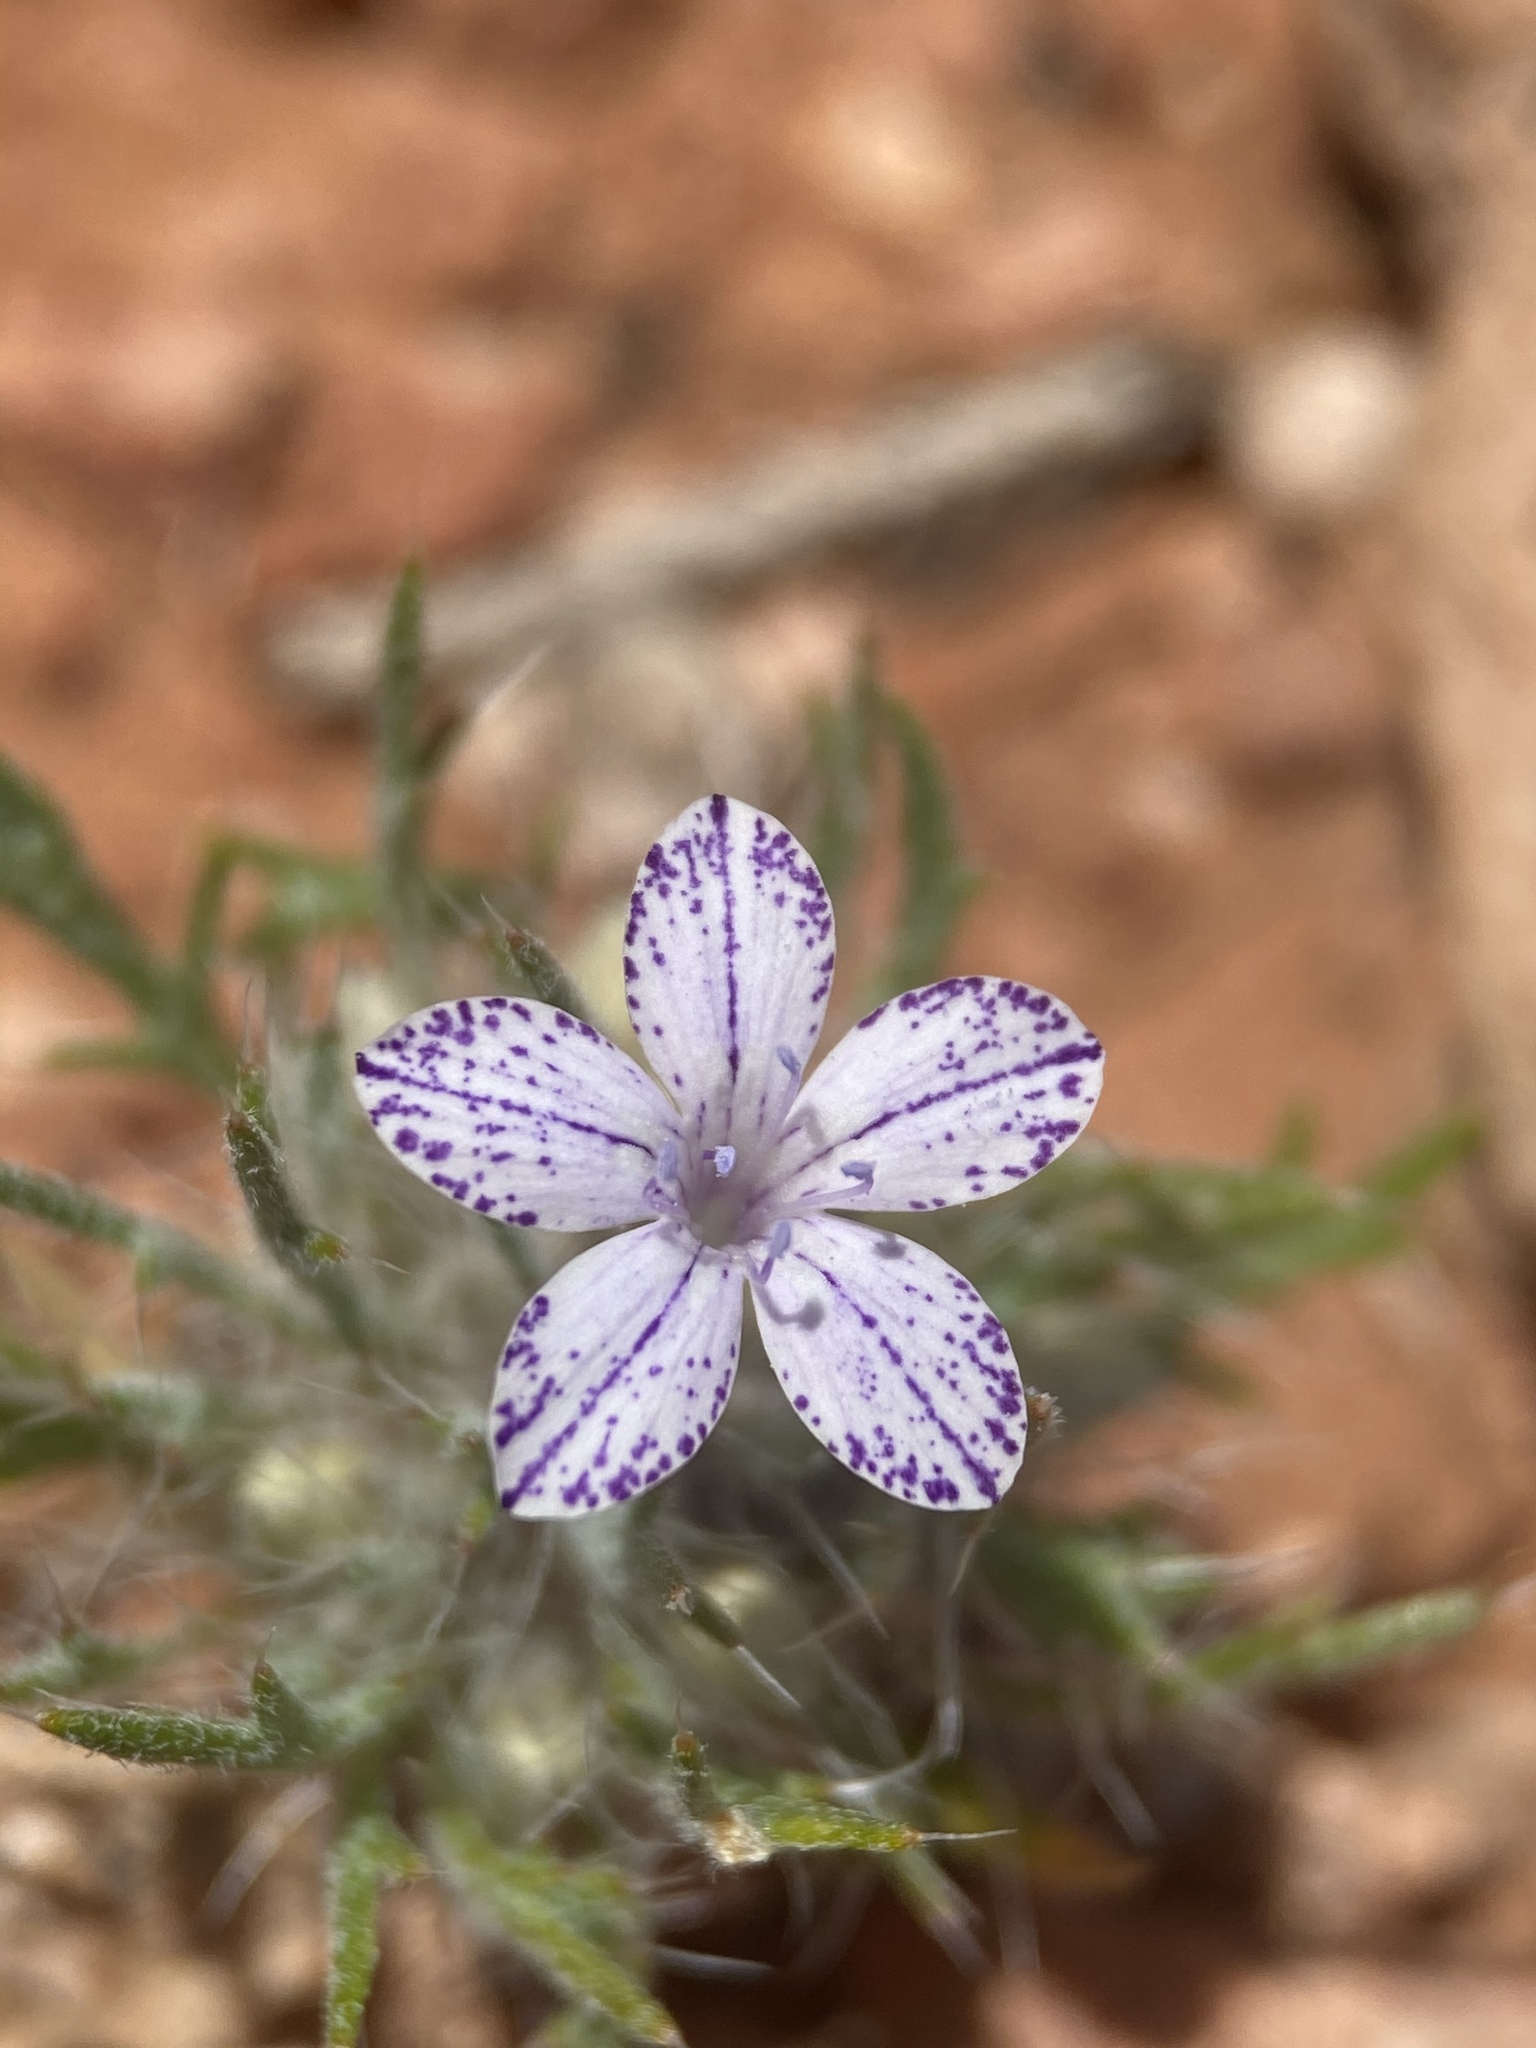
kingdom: Plantae
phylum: Tracheophyta
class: Magnoliopsida
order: Ericales
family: Polemoniaceae
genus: Langloisia
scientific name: Langloisia setosissima
